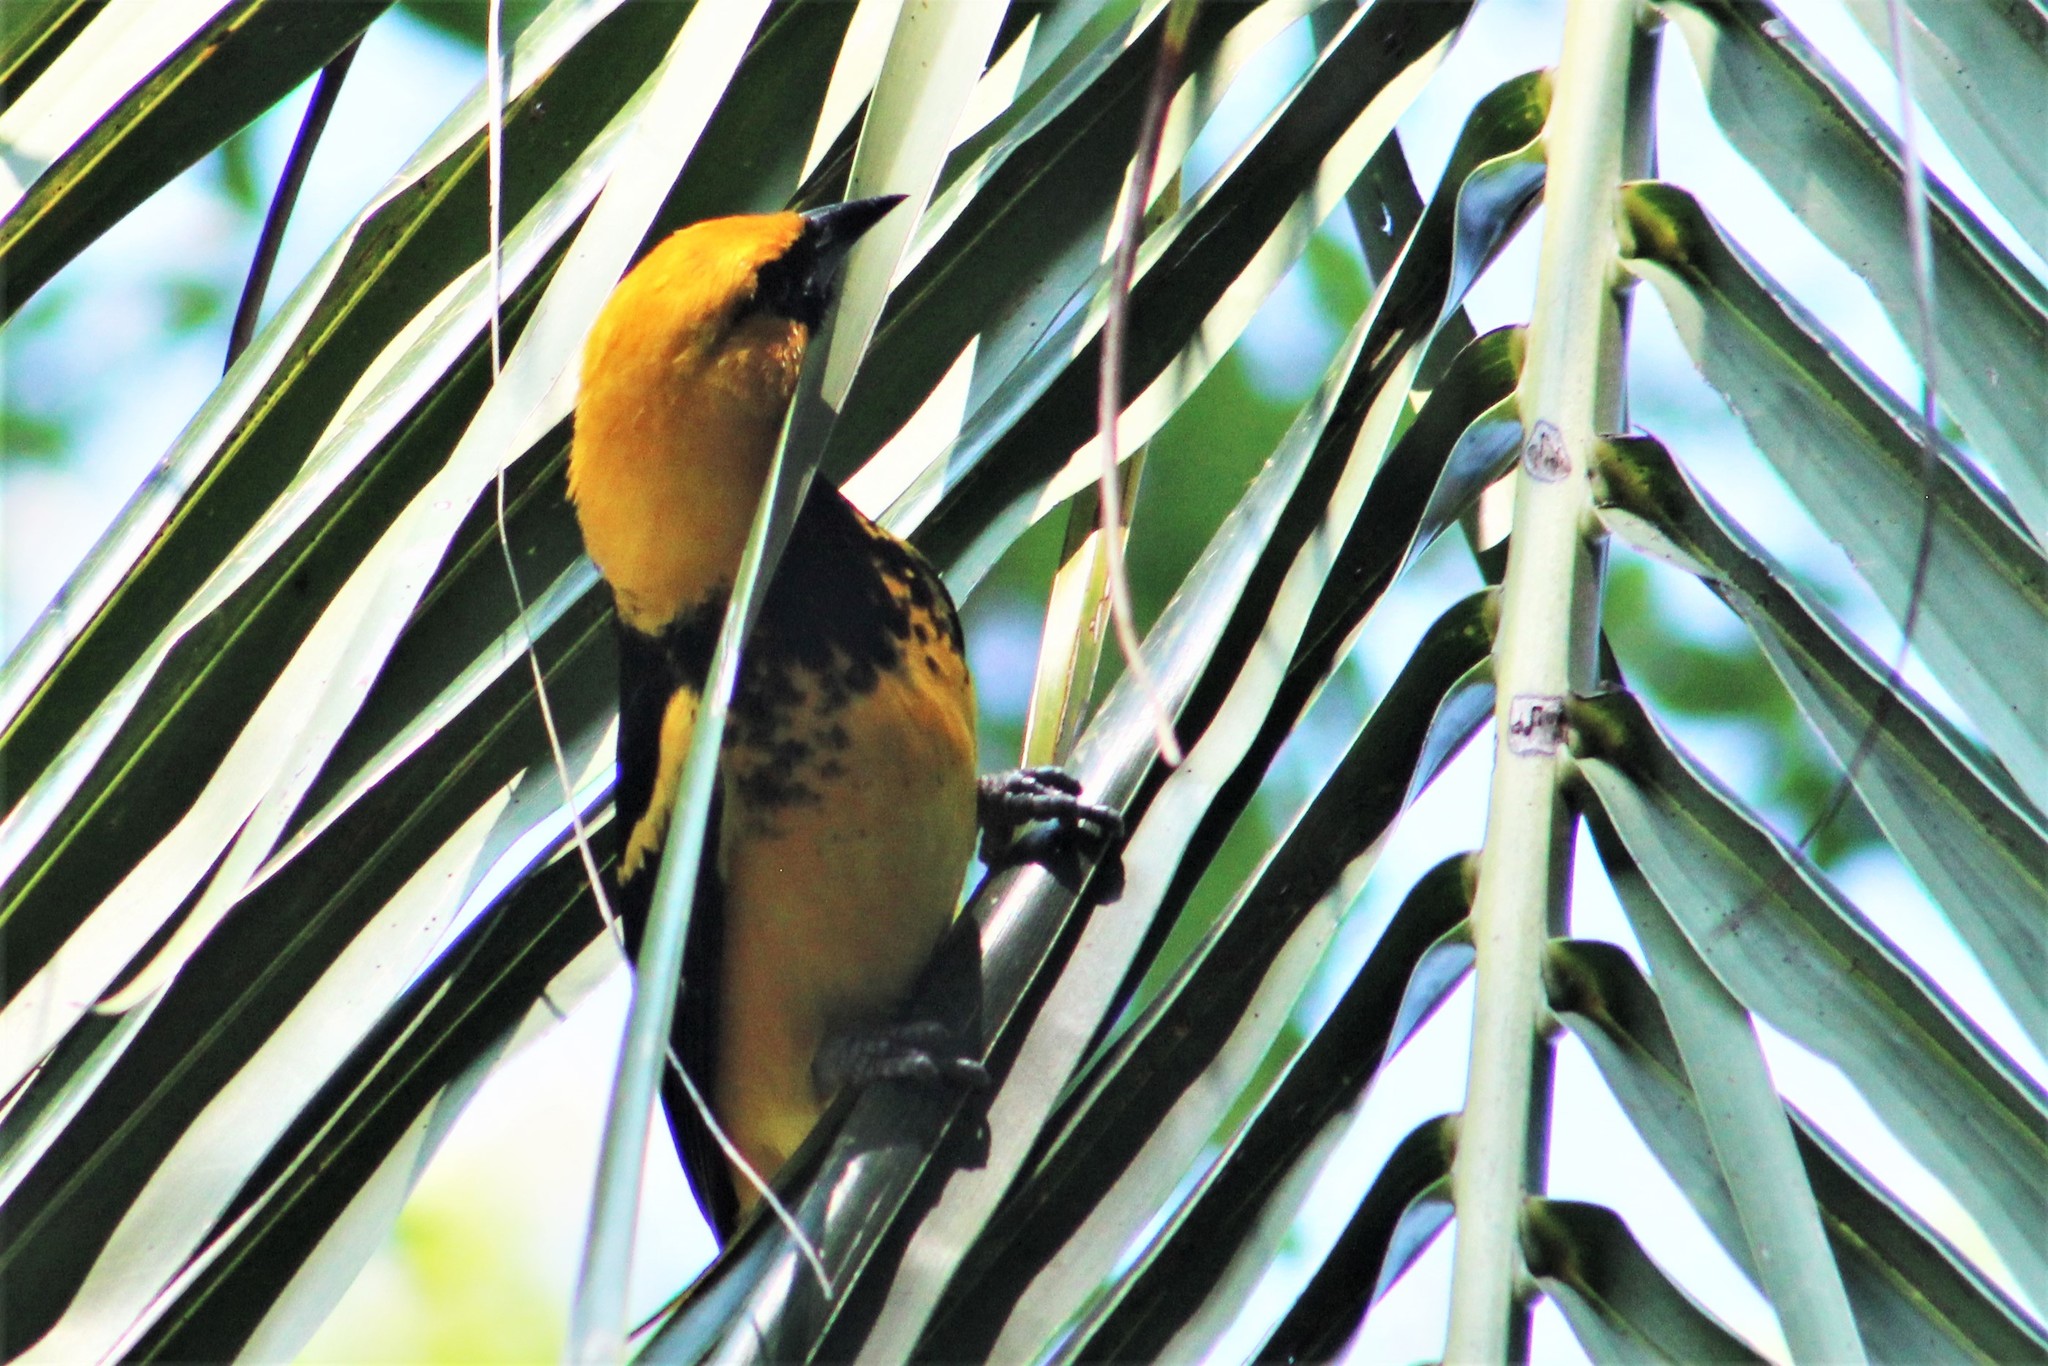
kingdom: Animalia
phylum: Chordata
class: Aves
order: Passeriformes
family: Icteridae
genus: Icterus
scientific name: Icterus pectoralis
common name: Spot-breasted oriole
